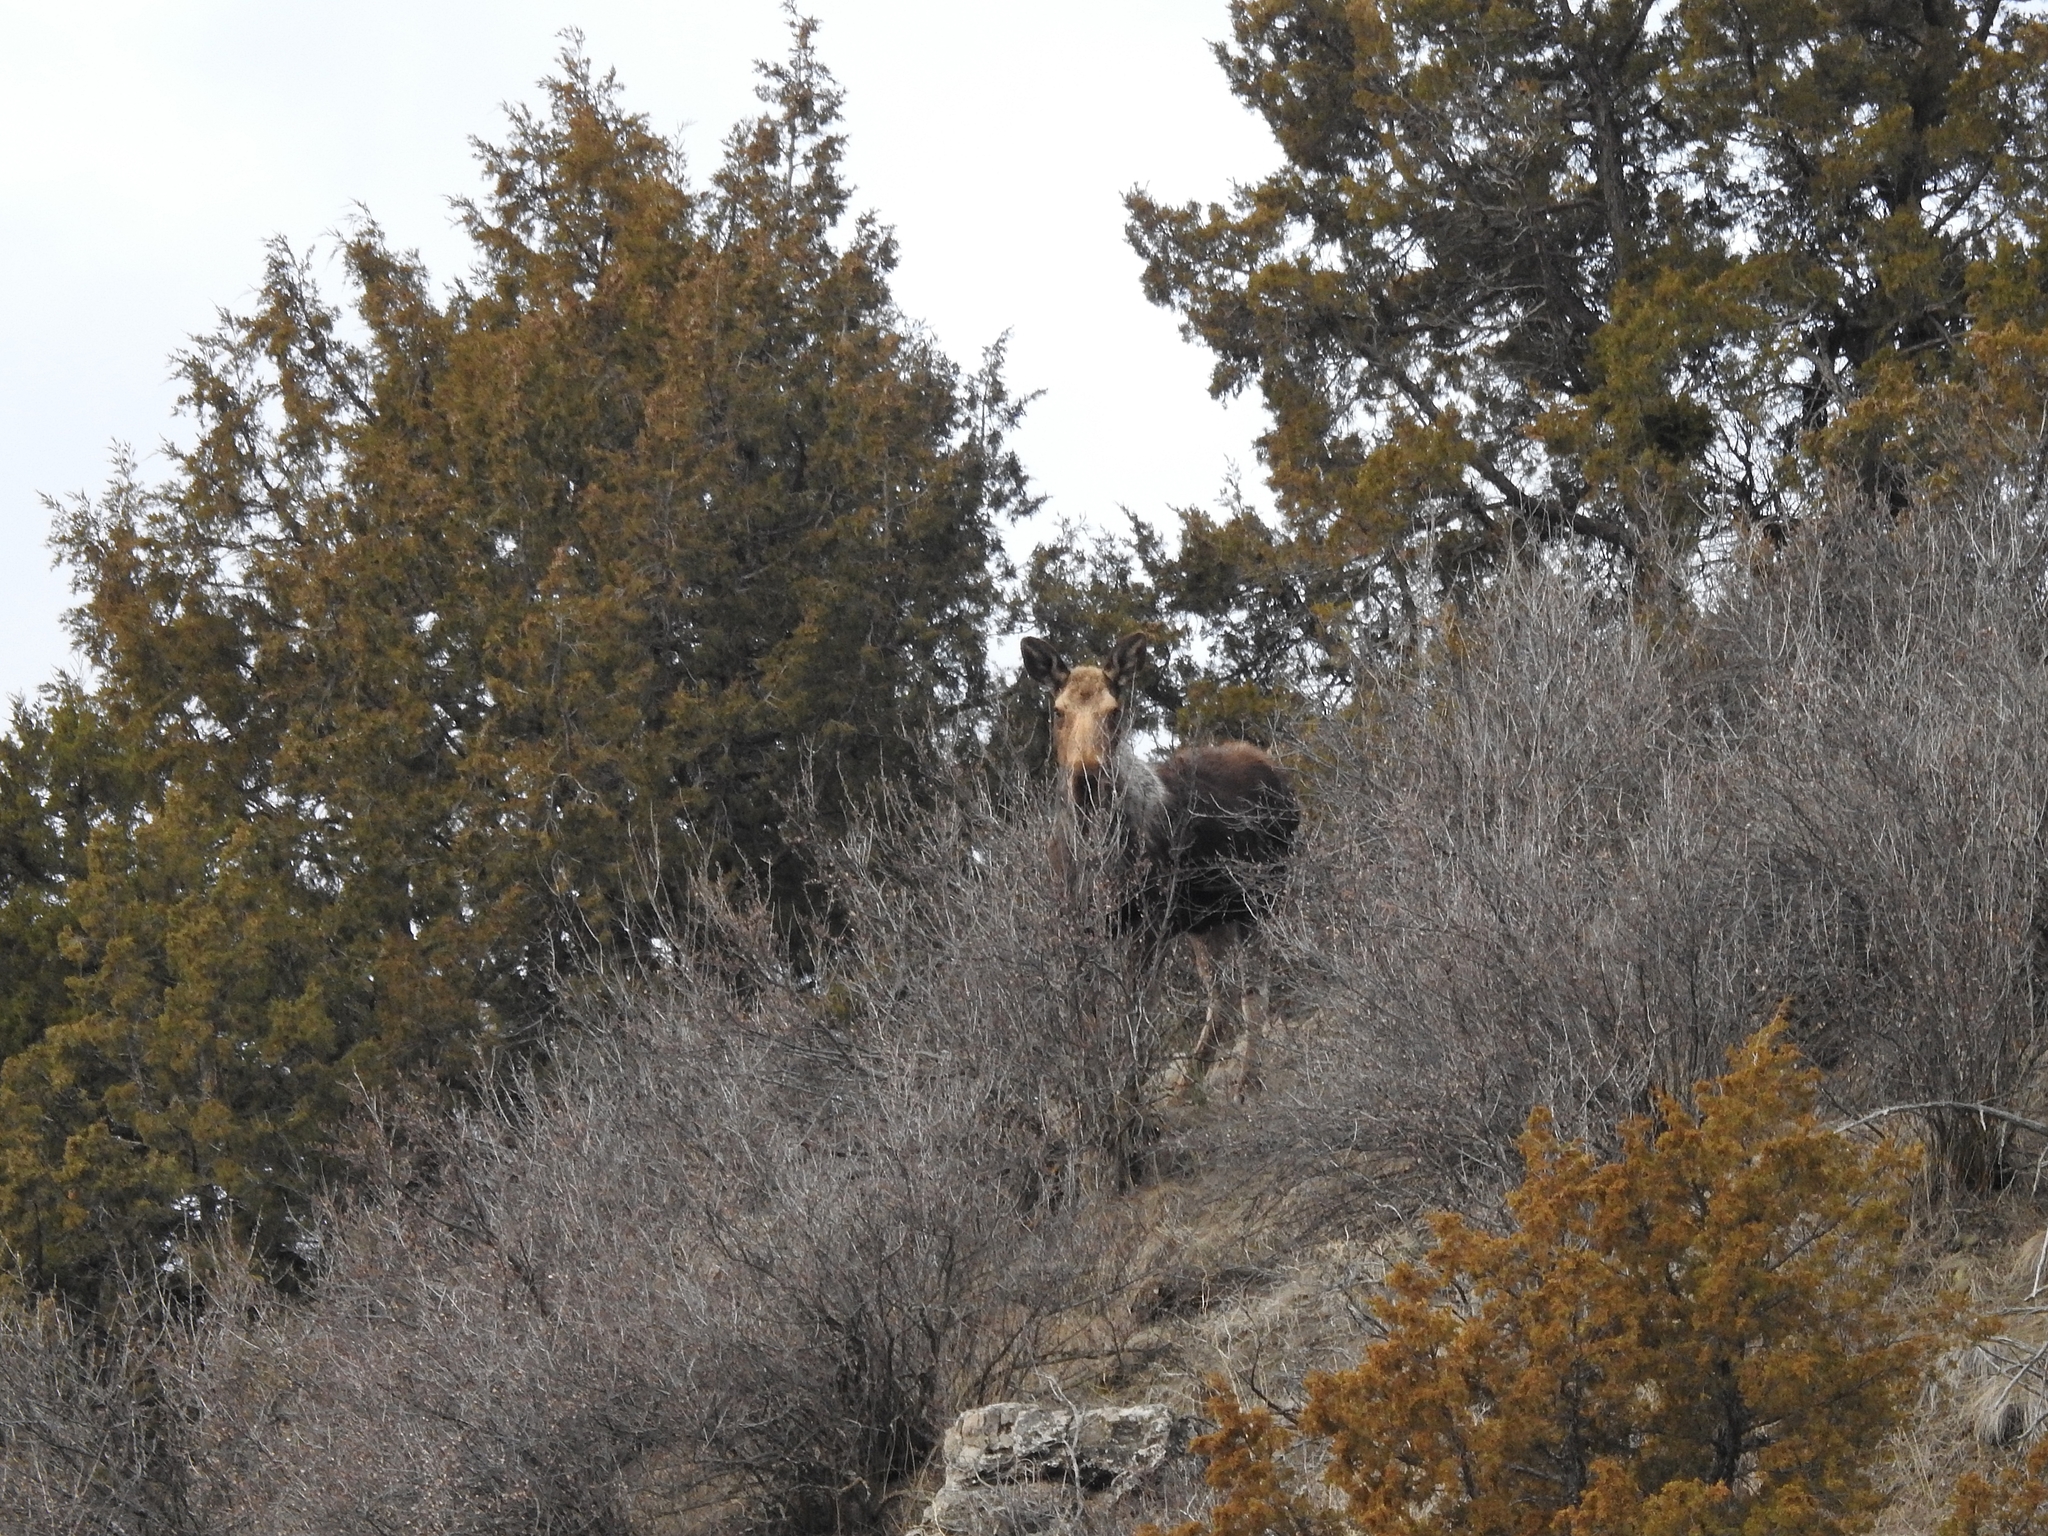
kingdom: Animalia
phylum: Chordata
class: Mammalia
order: Artiodactyla
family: Cervidae
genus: Alces
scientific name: Alces alces
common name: Moose
